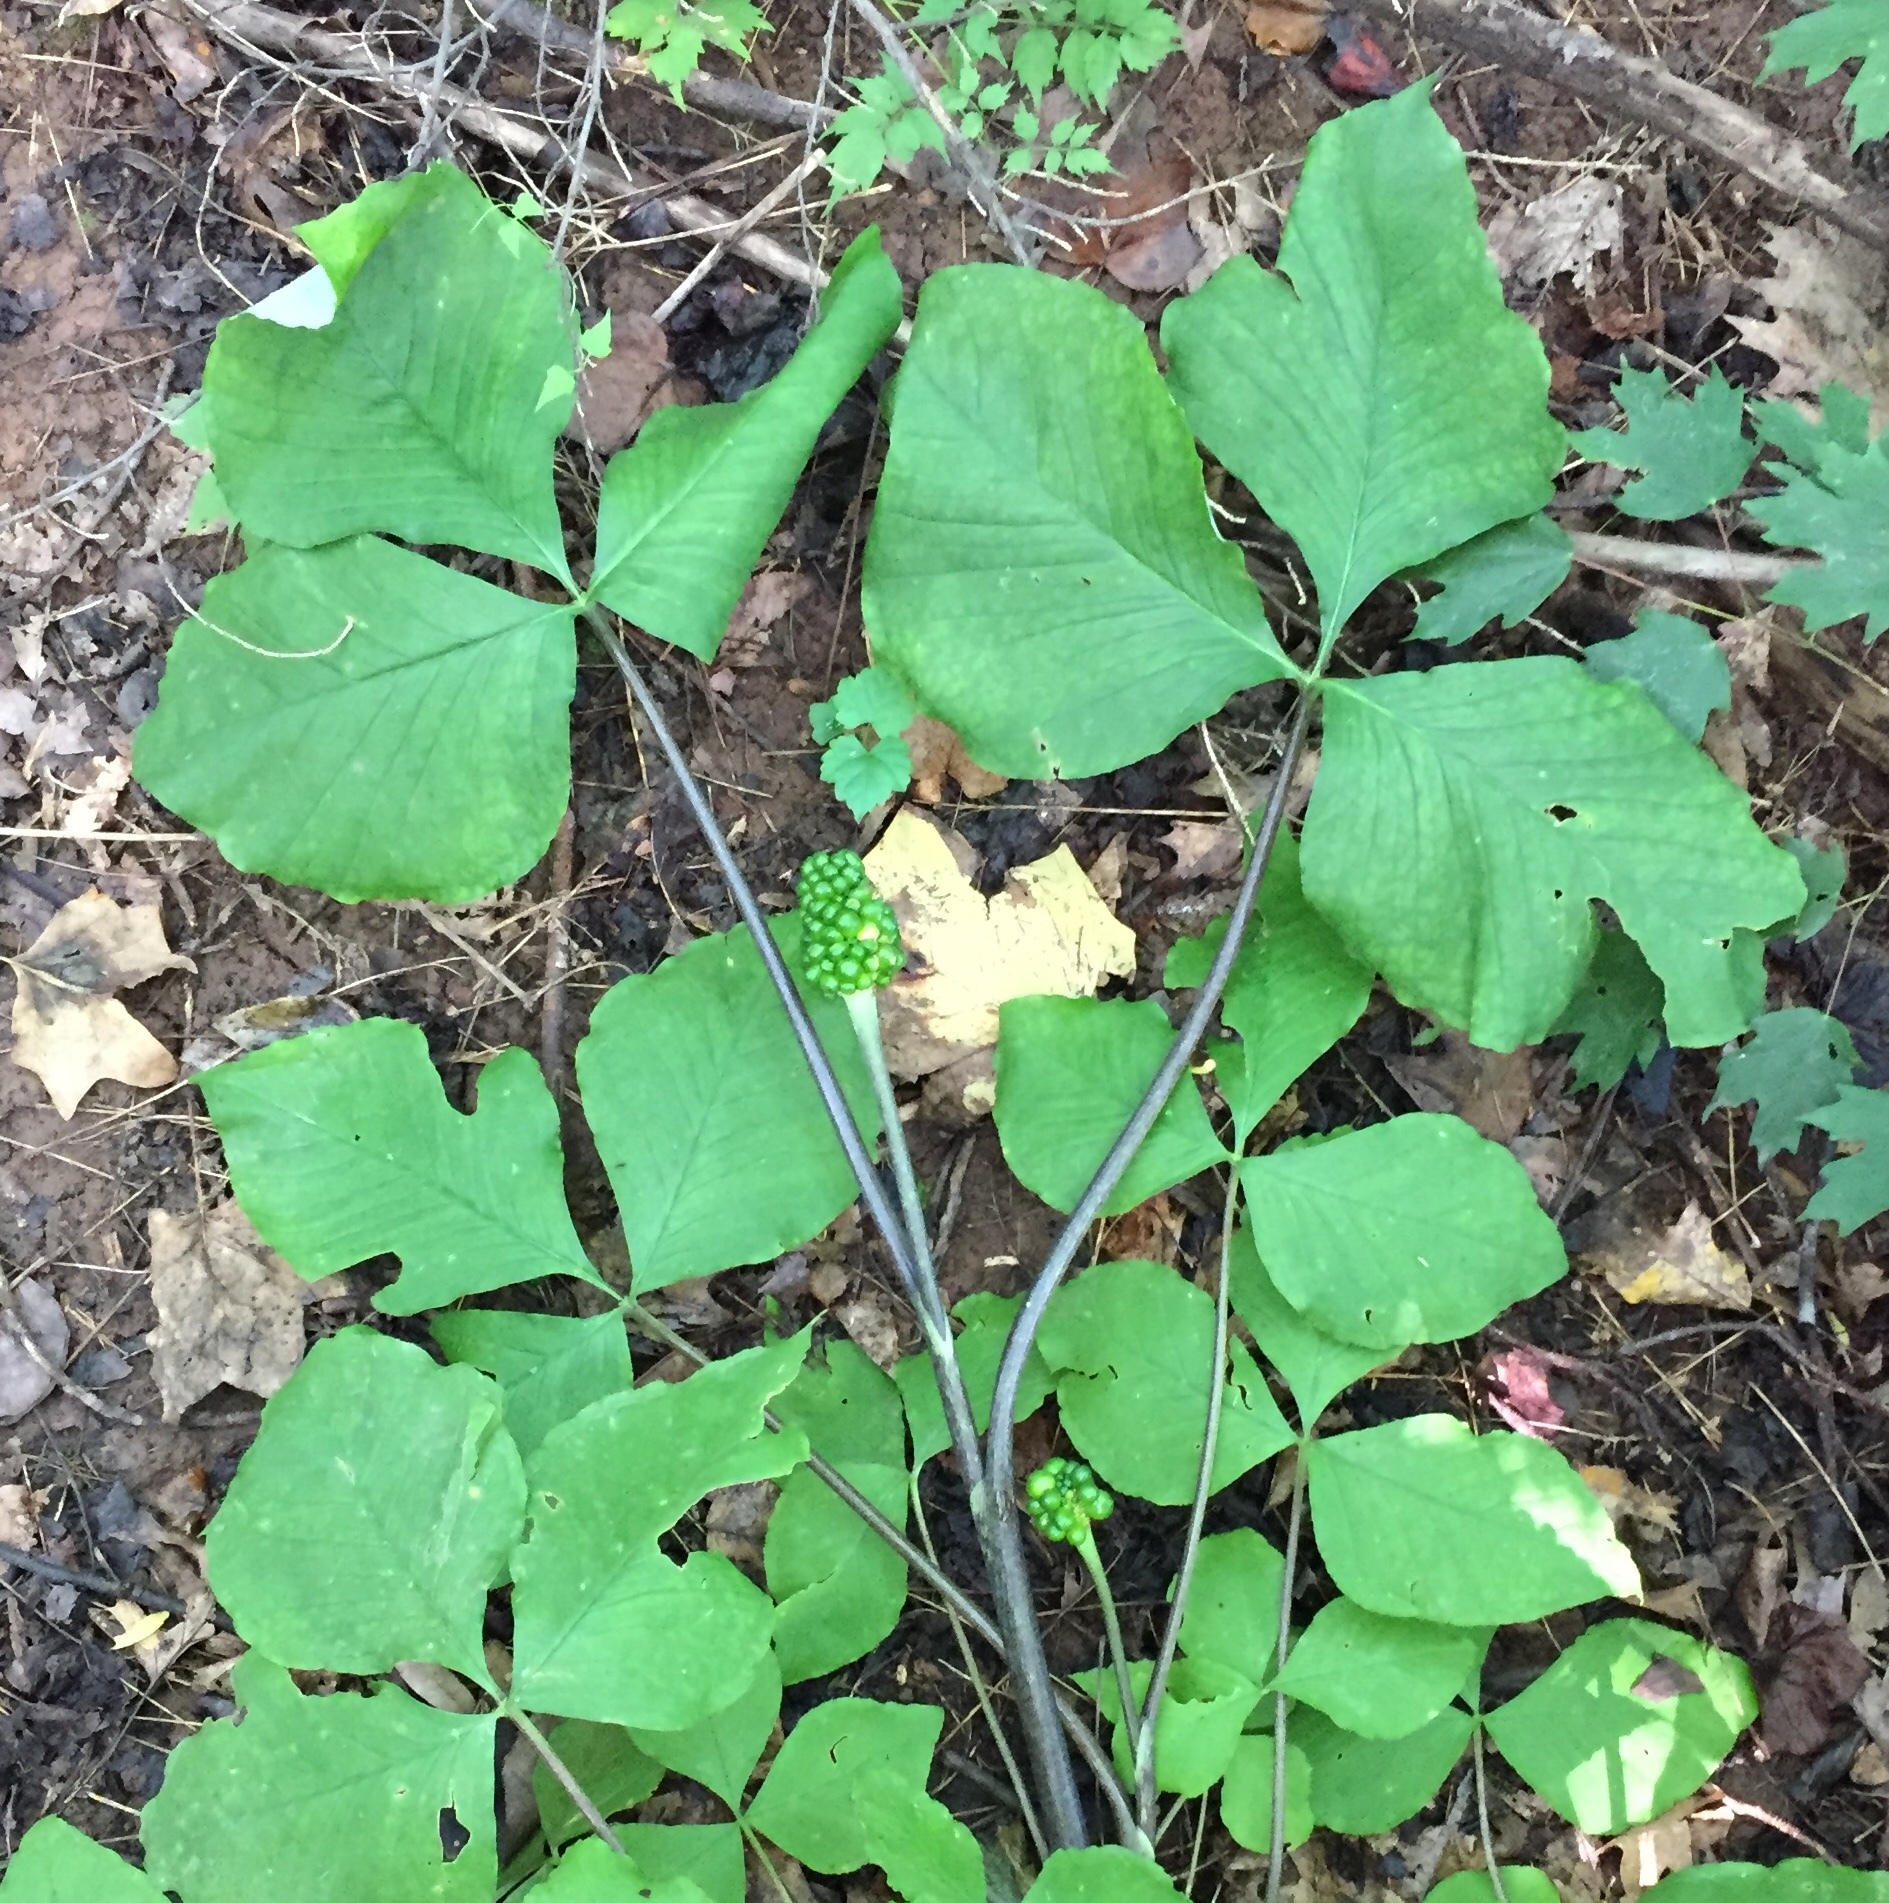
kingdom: Plantae
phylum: Tracheophyta
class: Liliopsida
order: Alismatales
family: Araceae
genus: Arisaema
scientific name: Arisaema triphyllum
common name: Jack-in-the-pulpit
